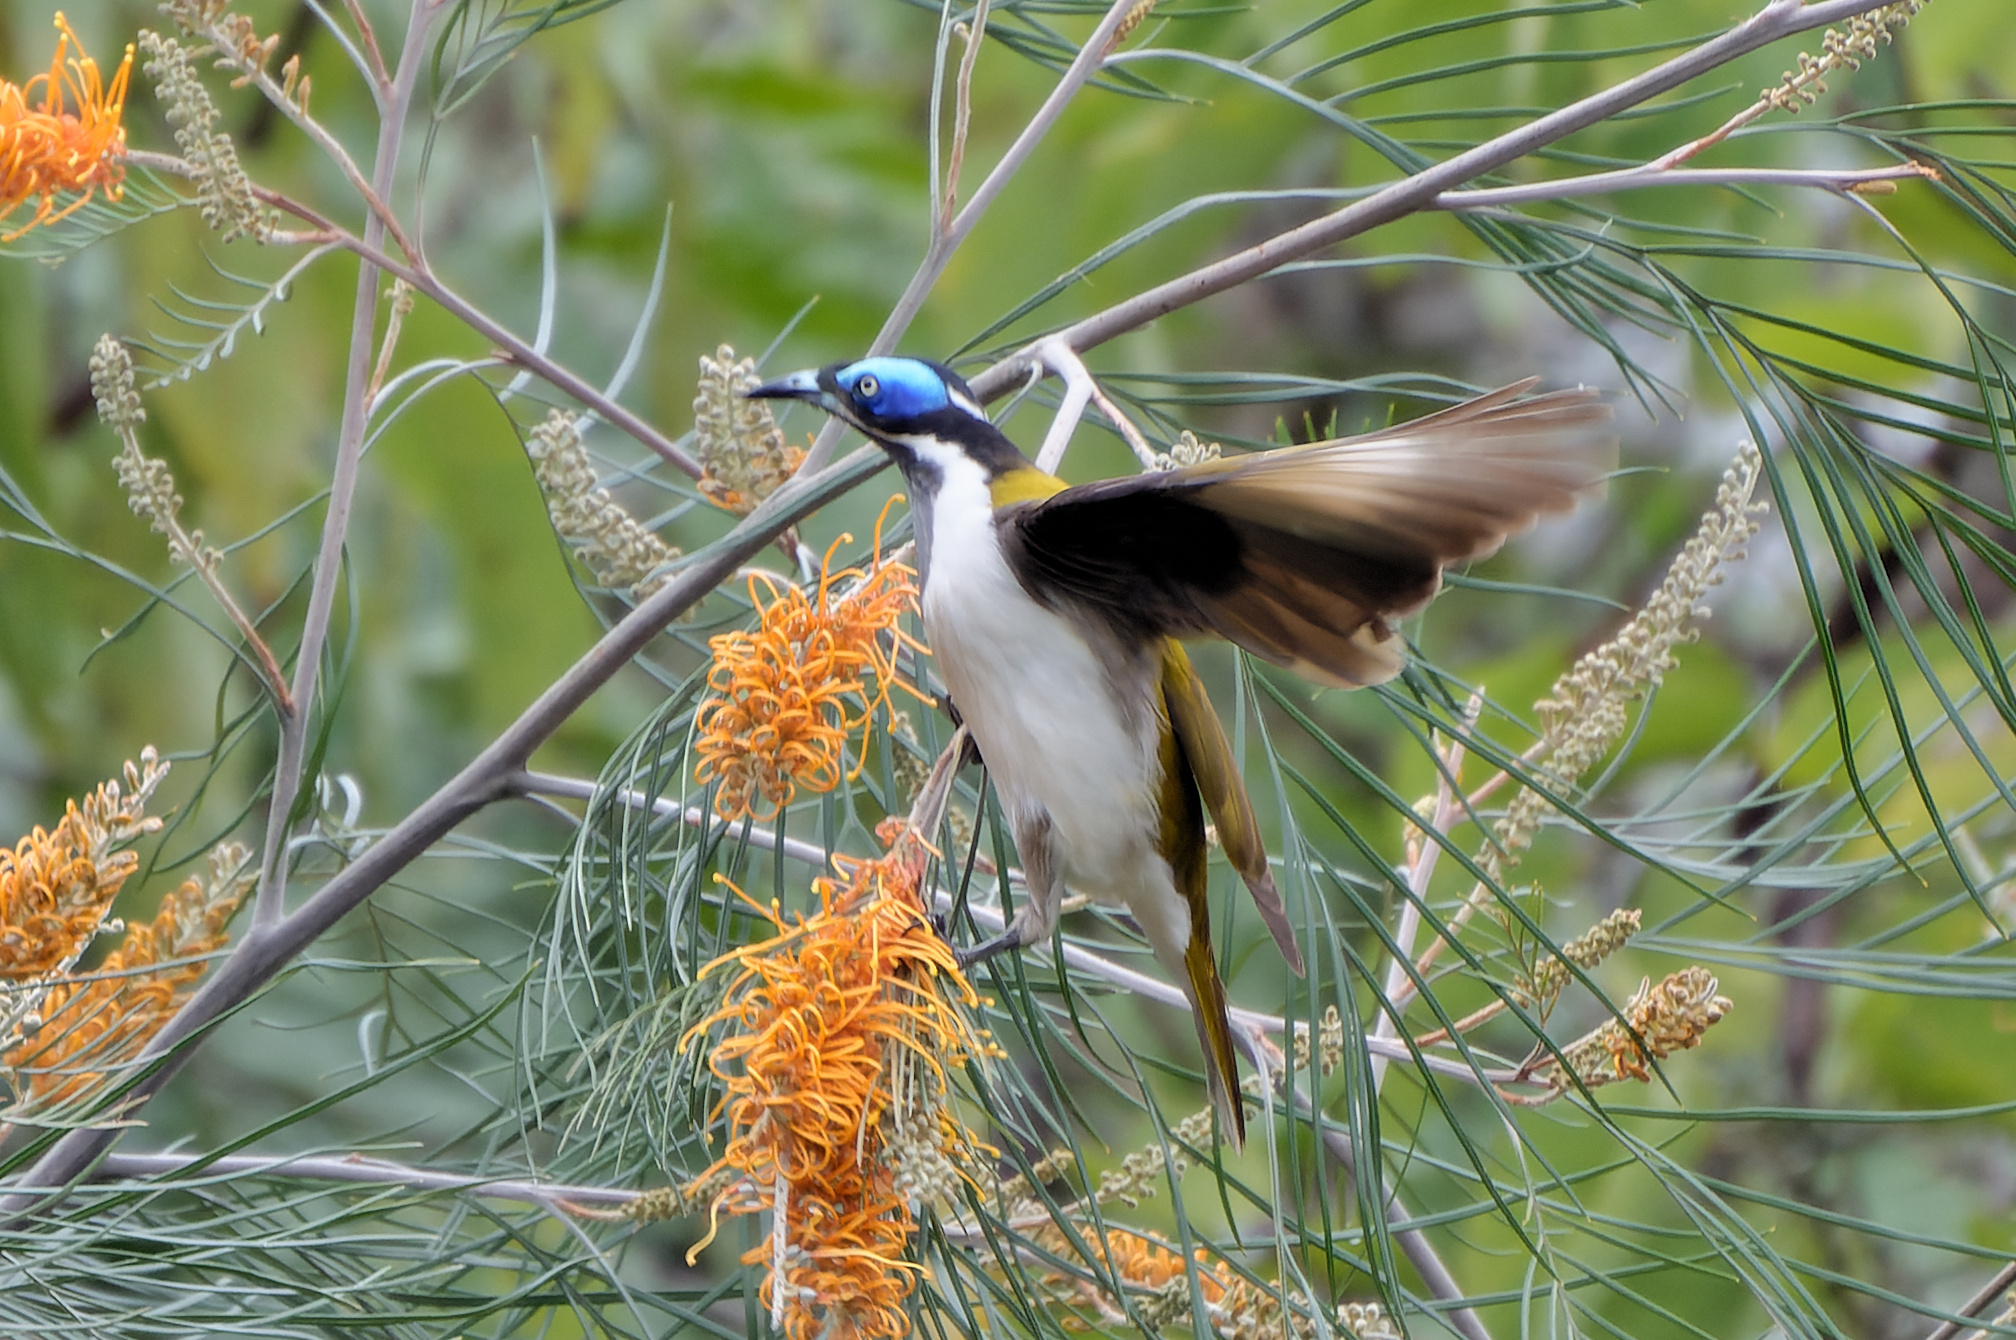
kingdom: Animalia
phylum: Chordata
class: Aves
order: Passeriformes
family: Meliphagidae
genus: Entomyzon
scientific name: Entomyzon cyanotis
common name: Blue-faced honeyeater
